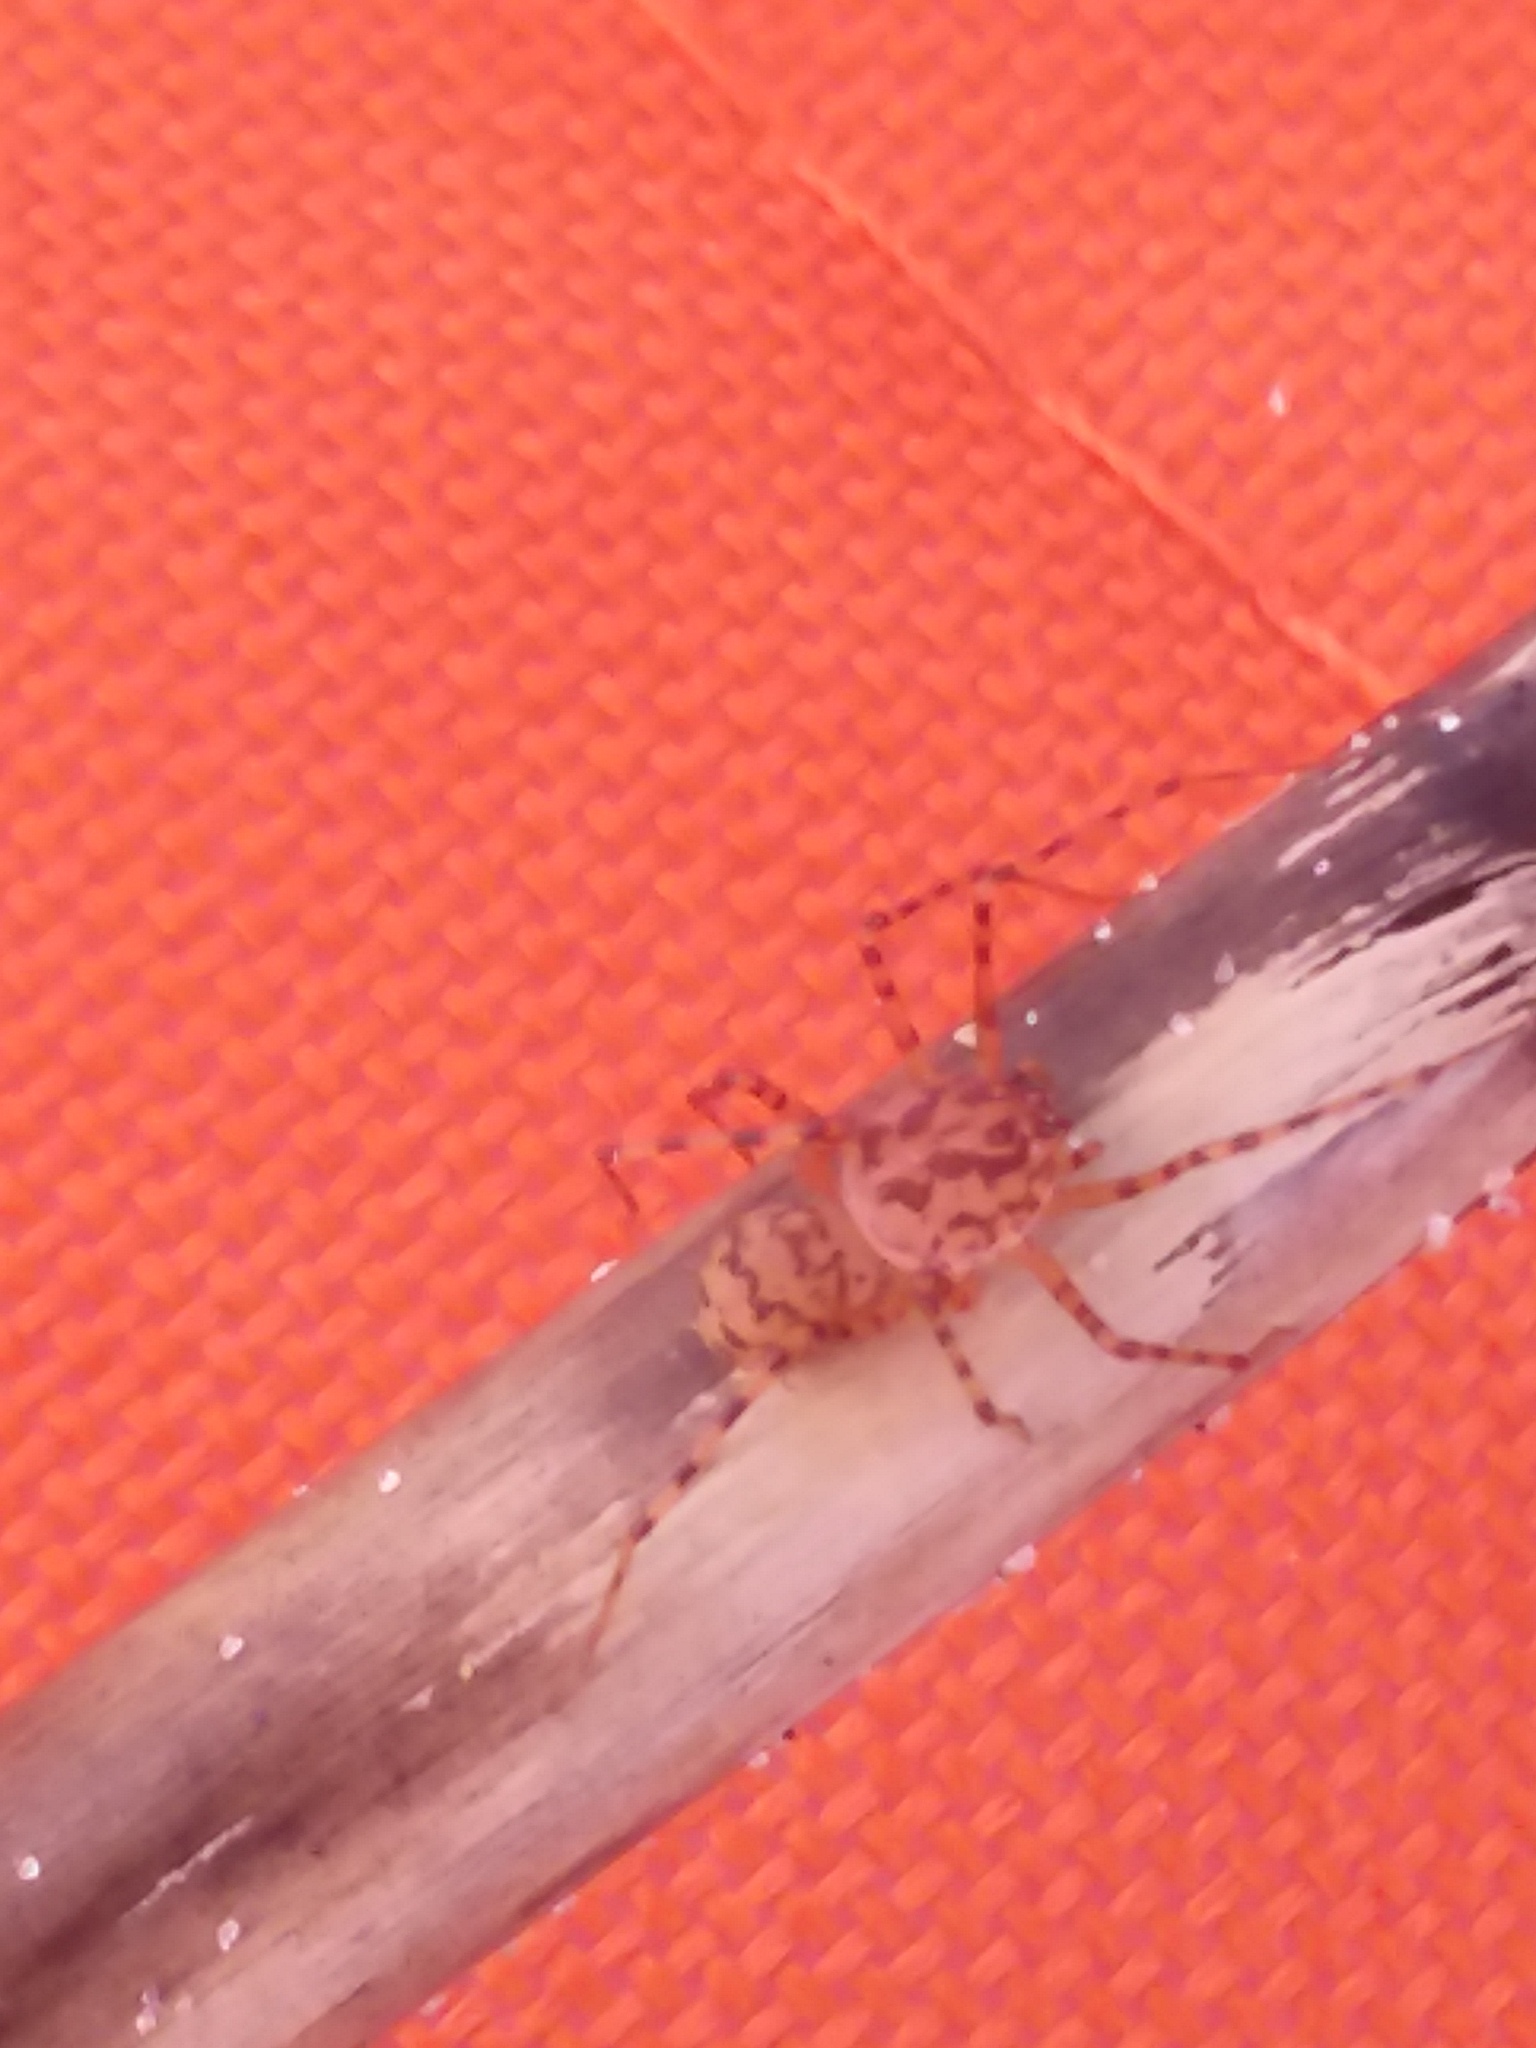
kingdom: Animalia
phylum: Arthropoda
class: Arachnida
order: Araneae
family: Scytodidae
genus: Scytodes
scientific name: Scytodes thoracica
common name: Spitting spider
